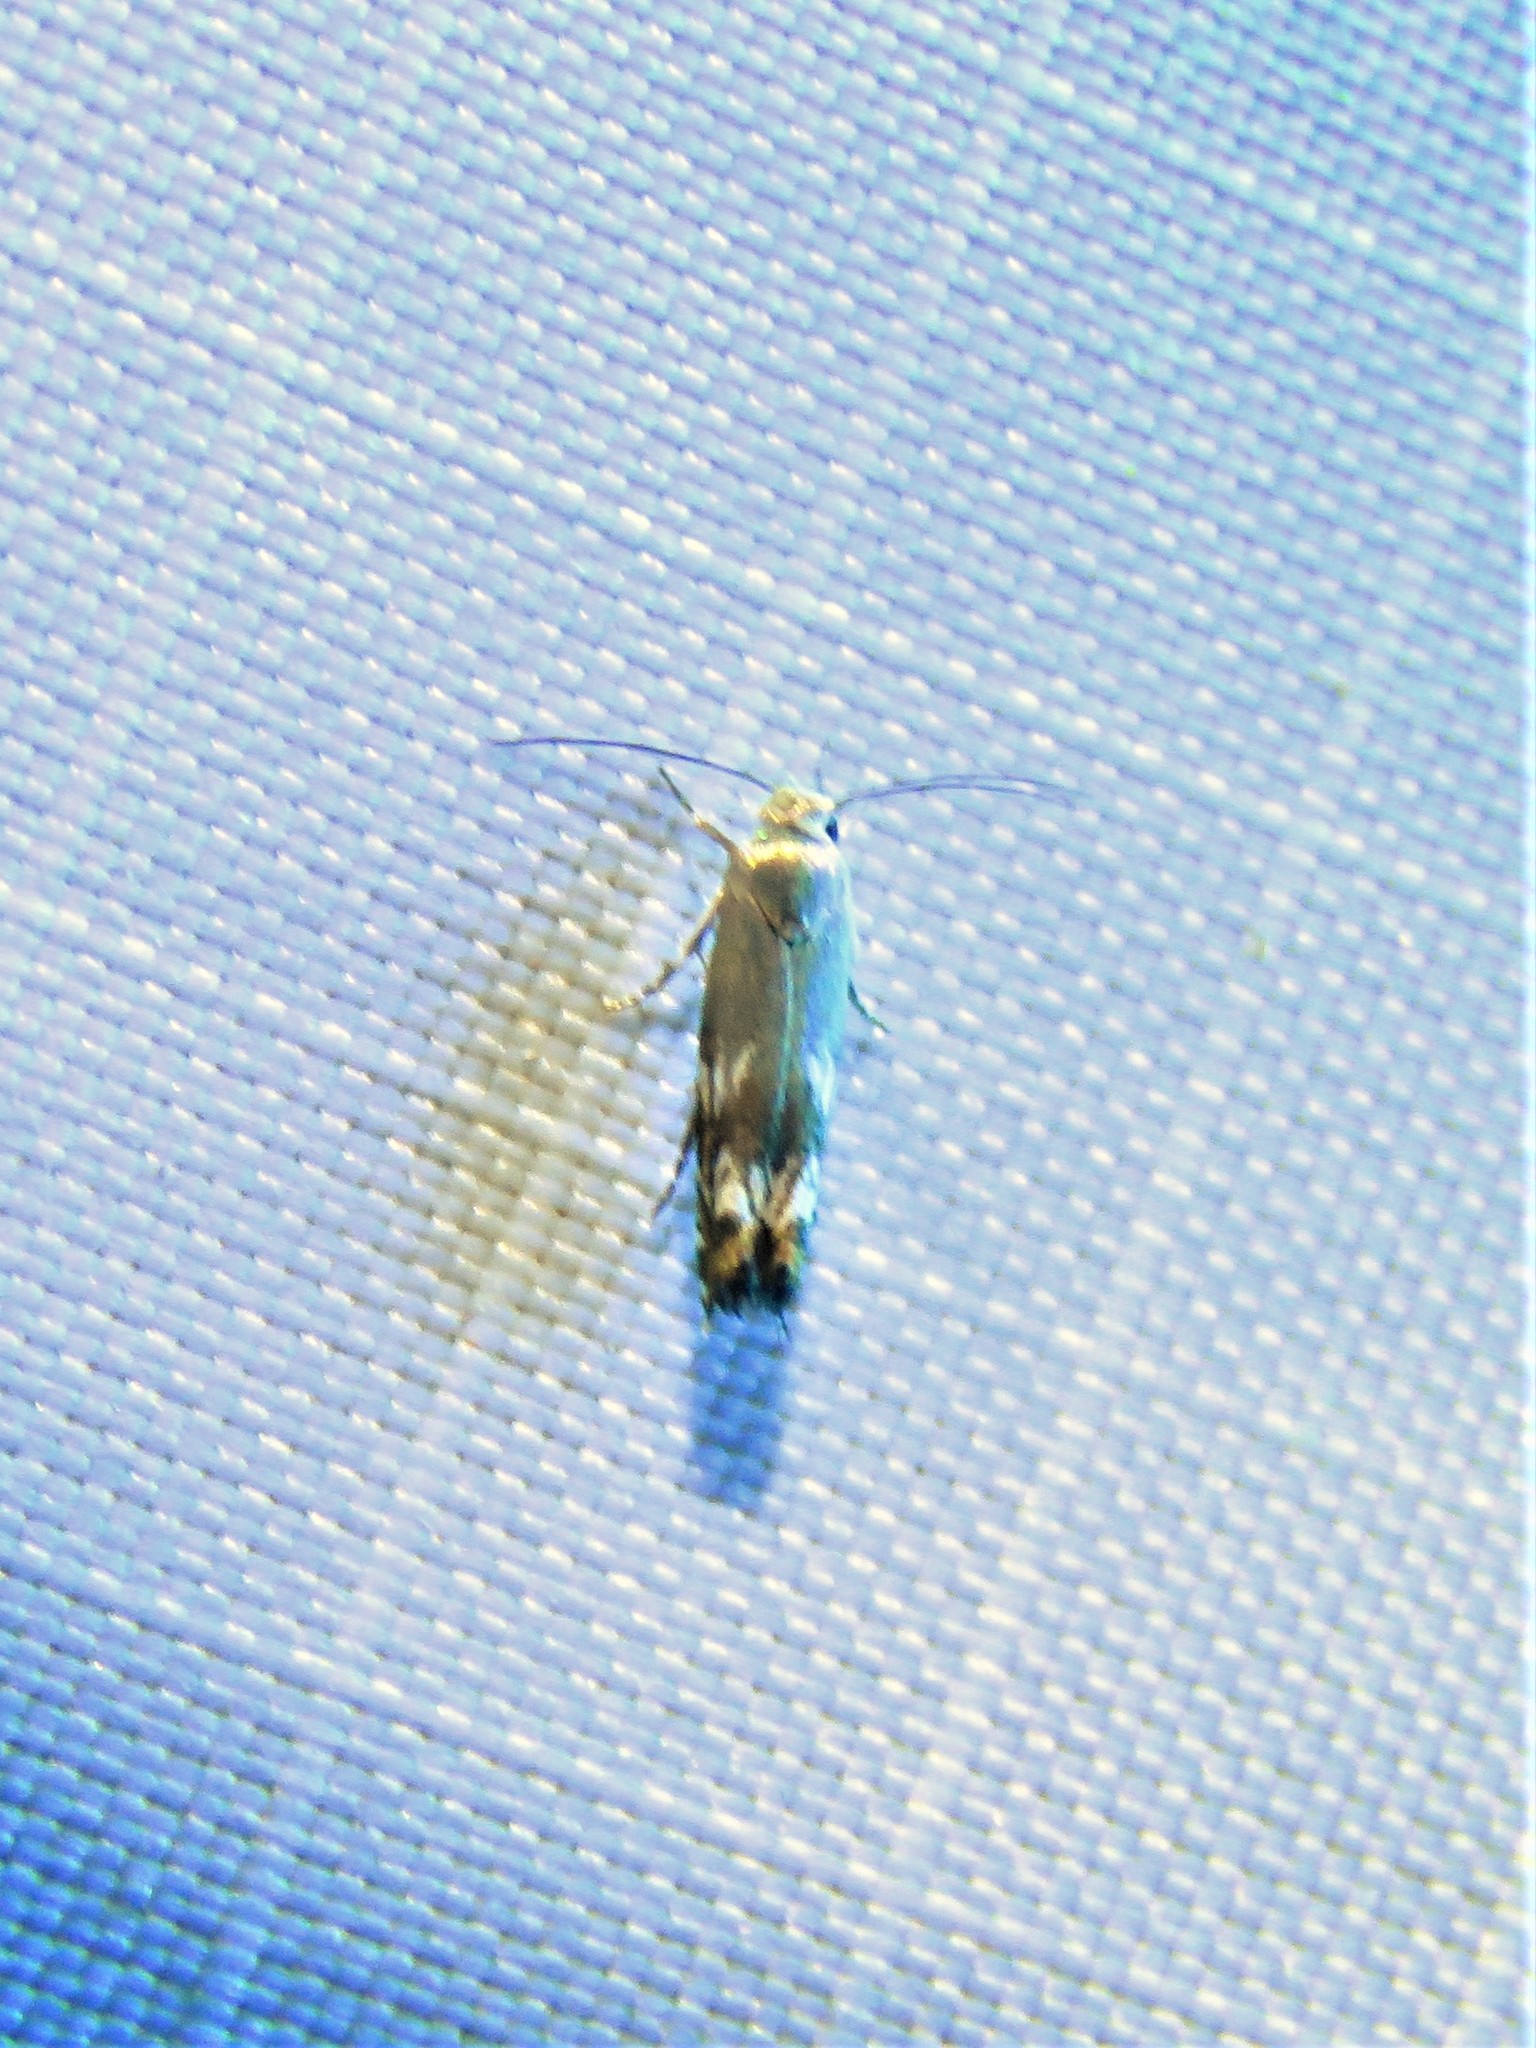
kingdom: Animalia
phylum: Arthropoda
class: Insecta
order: Lepidoptera
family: Gelechiidae
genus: Calliprora
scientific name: Calliprora sexstrigella
